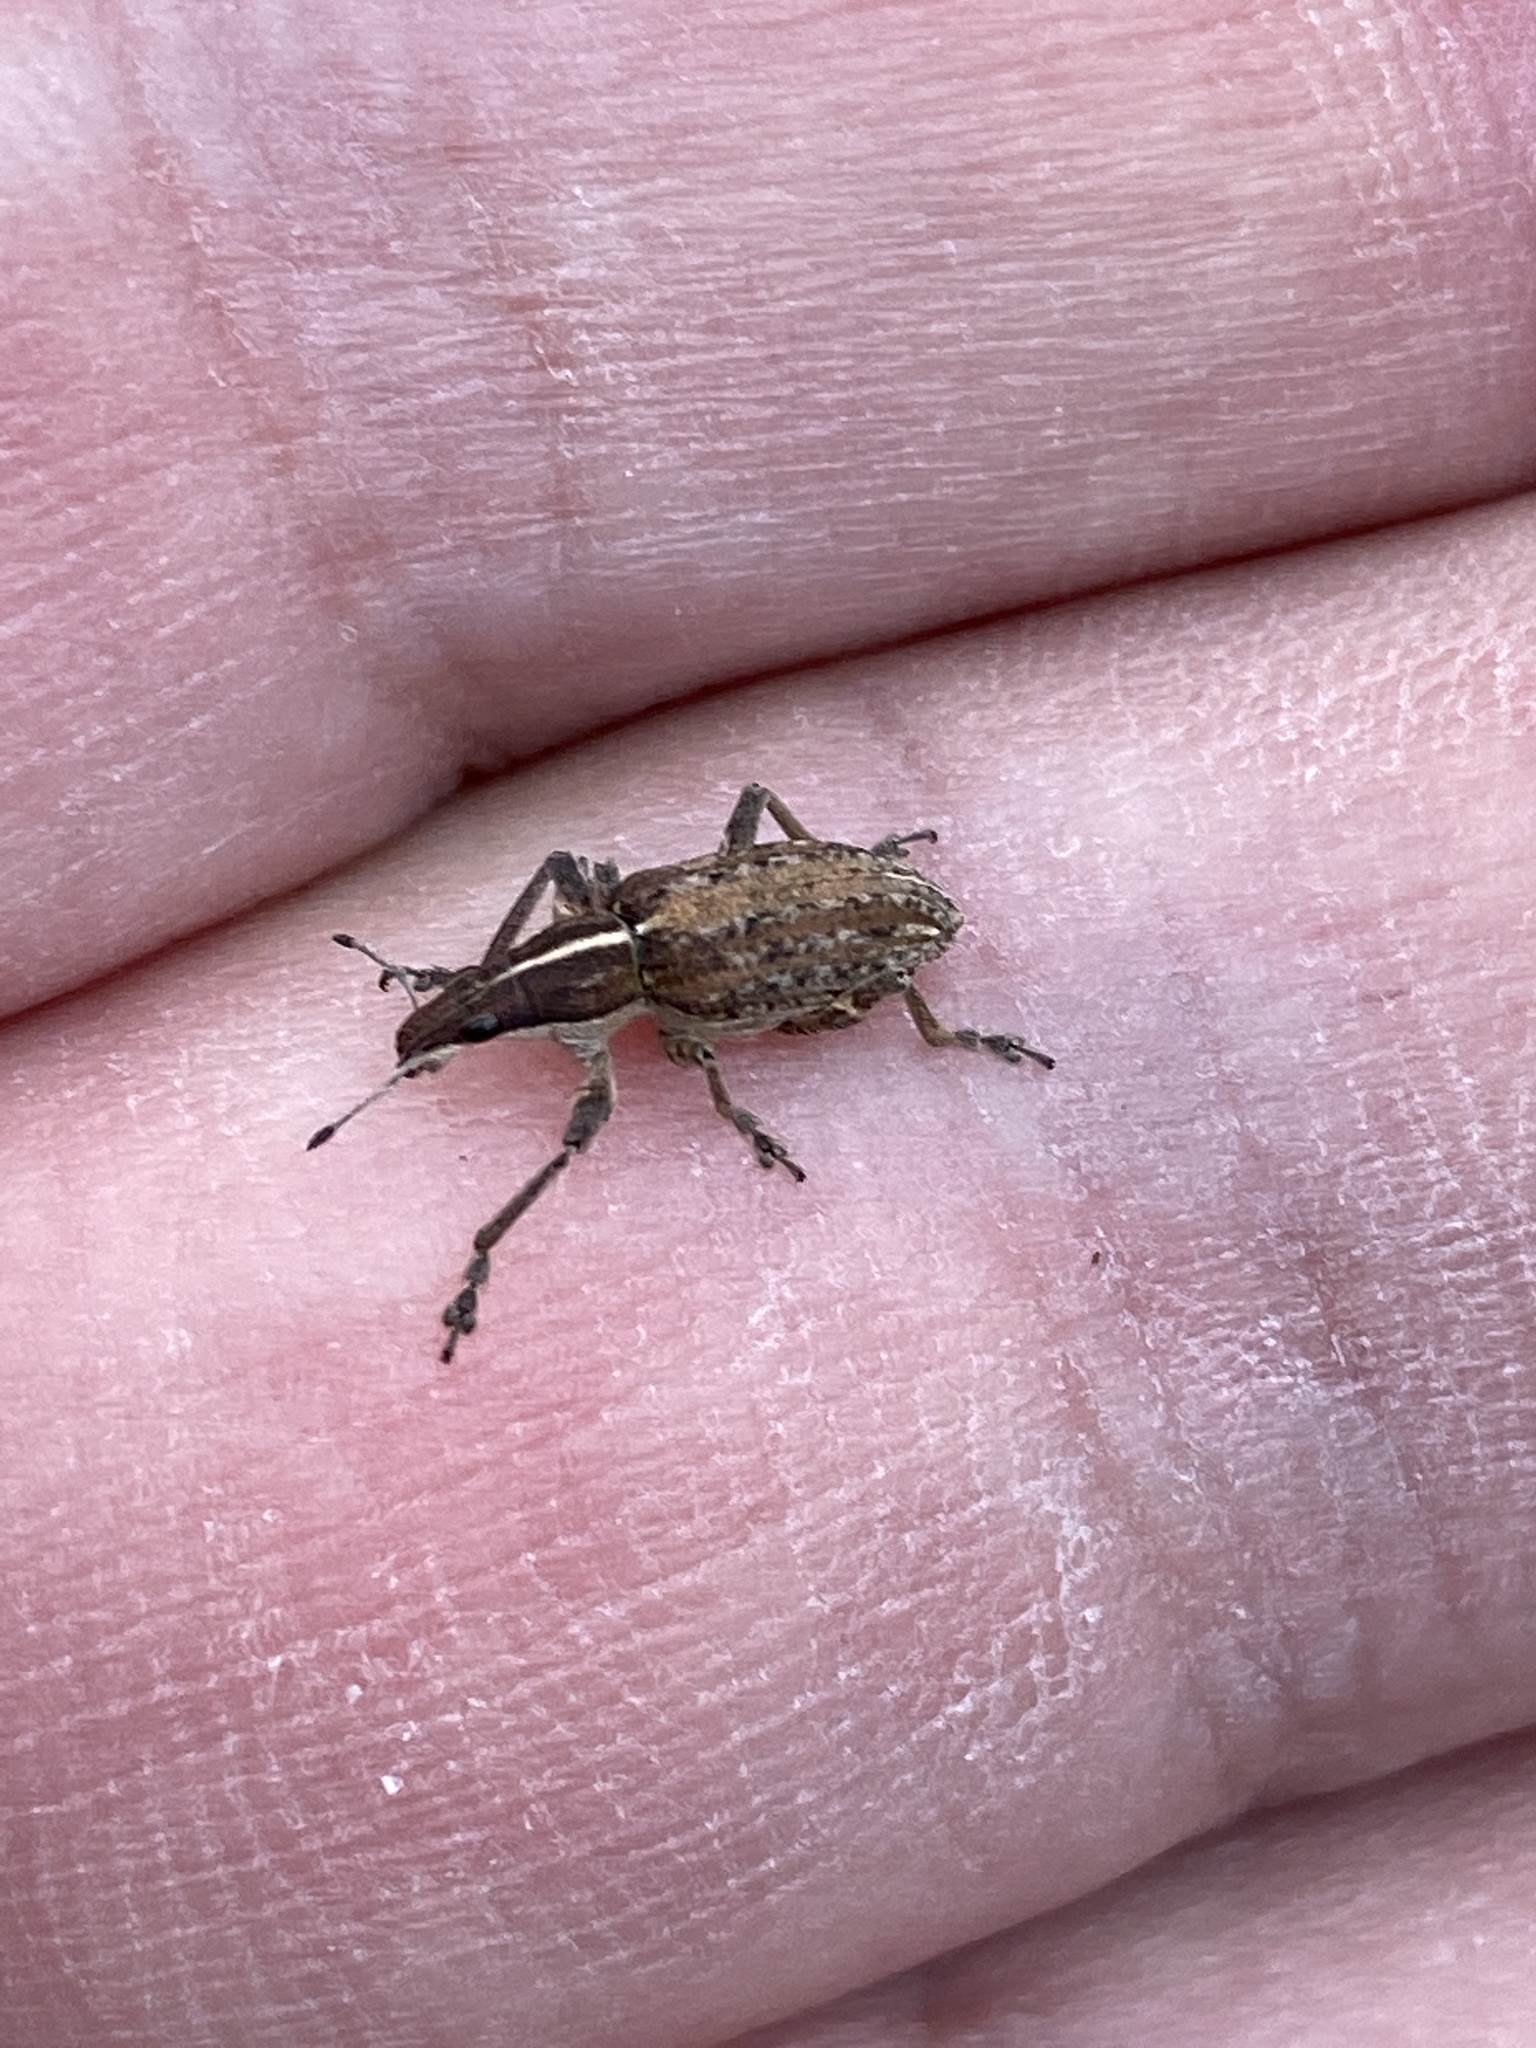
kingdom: Animalia
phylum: Arthropoda
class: Insecta
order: Coleoptera
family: Curculionidae
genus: Charagmus
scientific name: Charagmus gressorius
